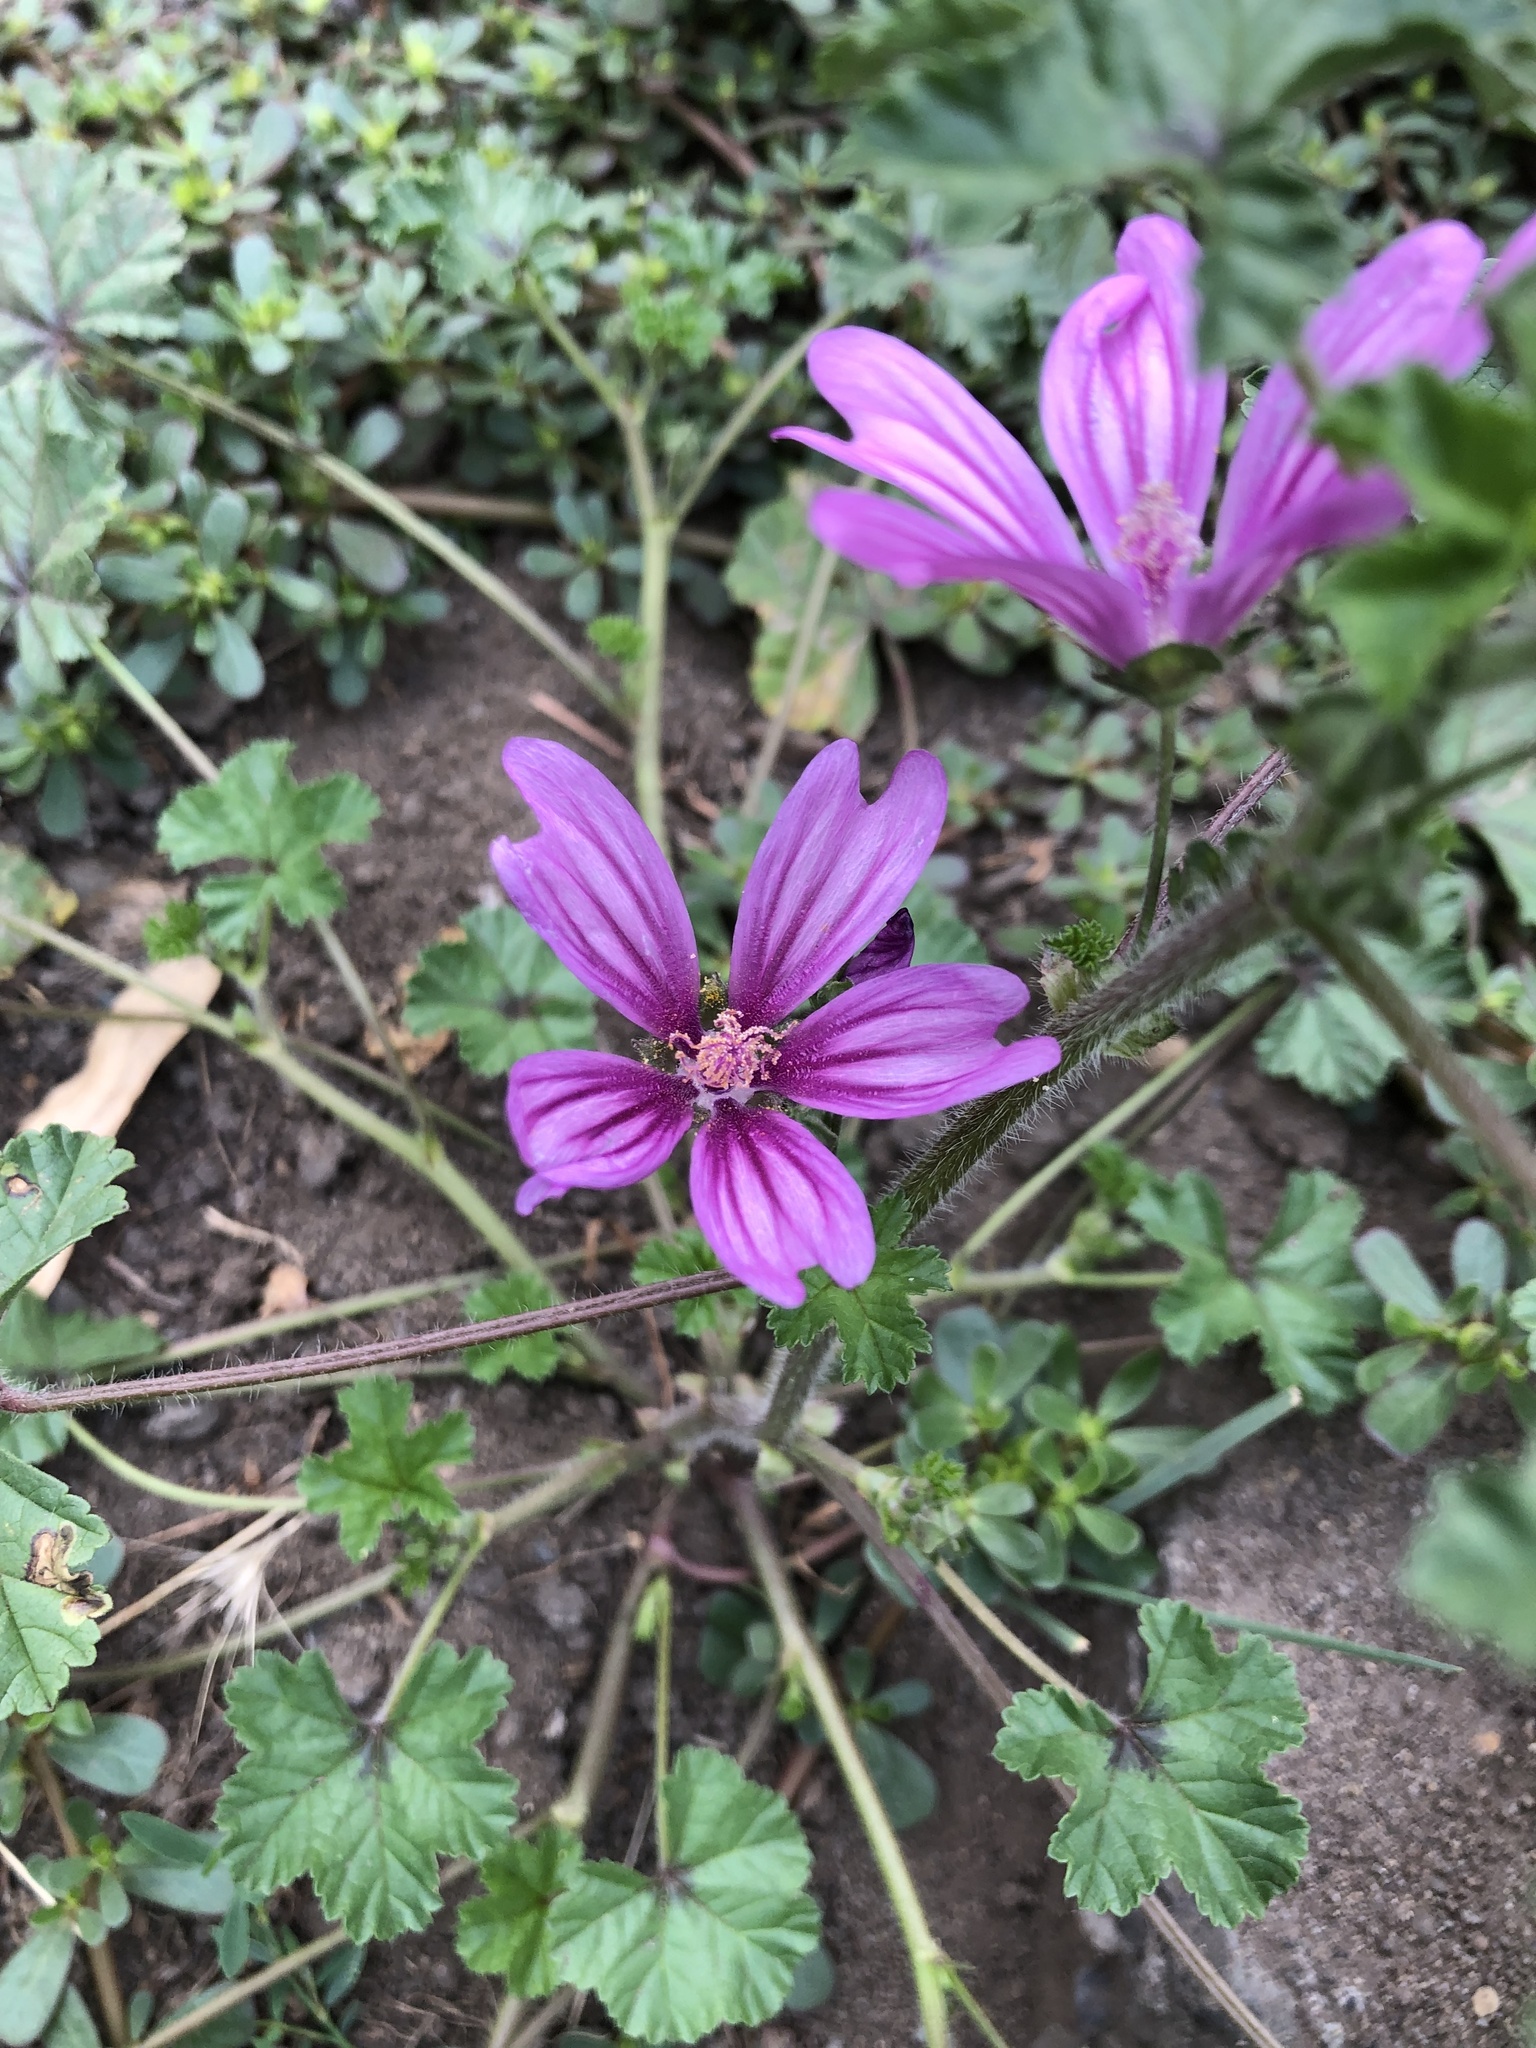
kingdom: Plantae
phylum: Tracheophyta
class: Magnoliopsida
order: Malvales
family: Malvaceae
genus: Malva
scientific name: Malva sylvestris
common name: Common mallow
